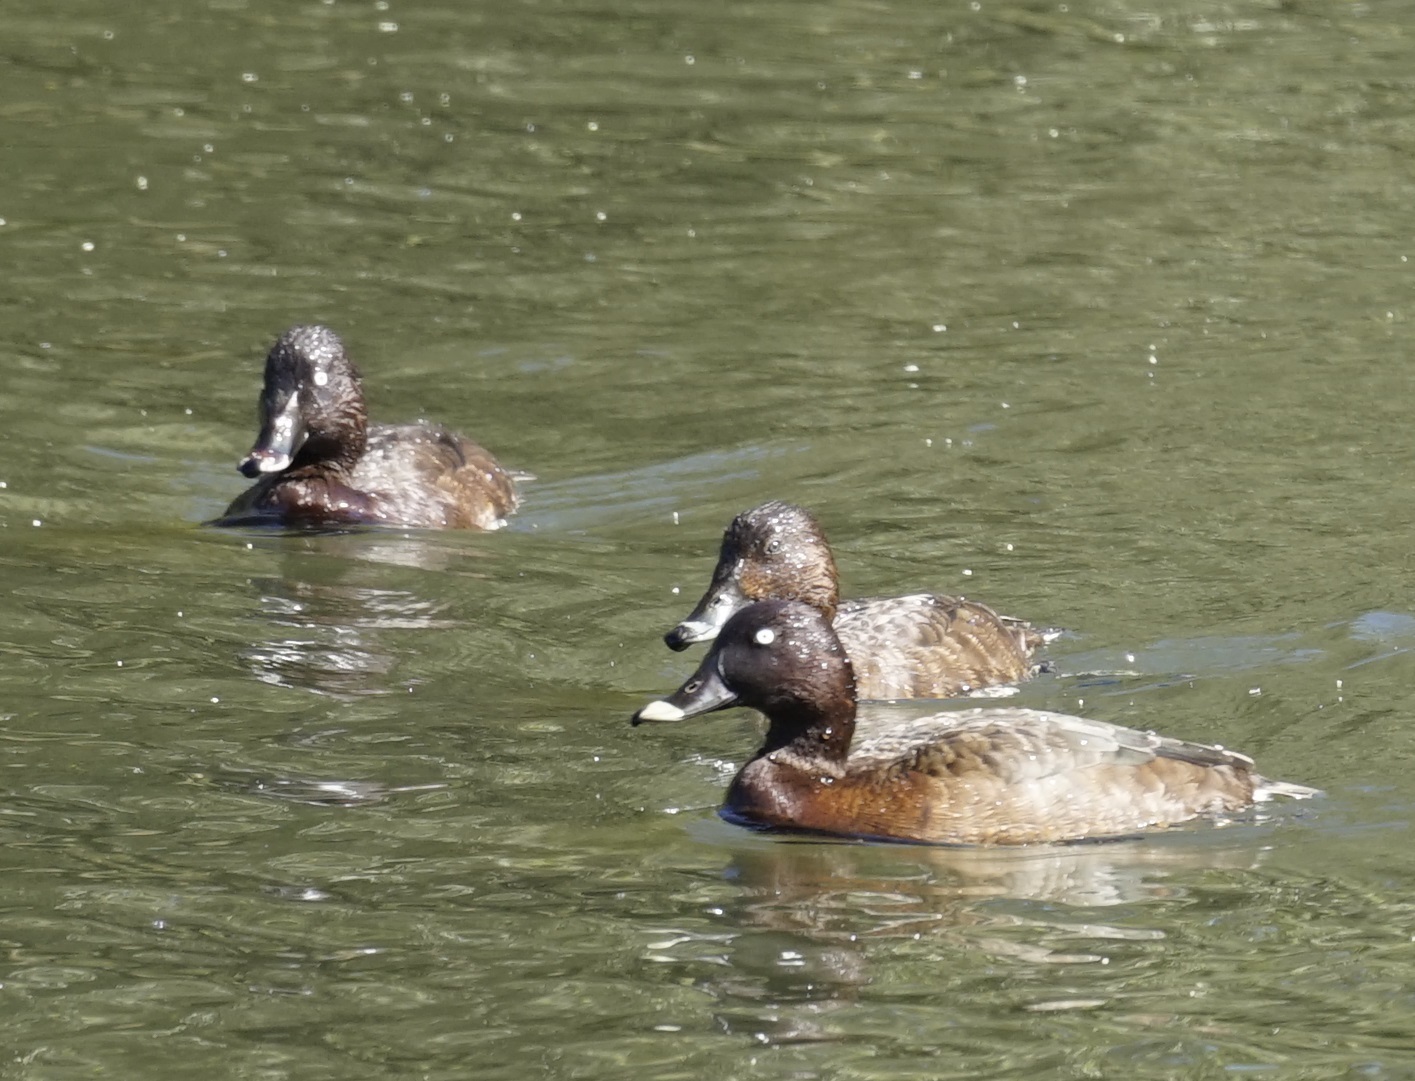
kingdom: Animalia
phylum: Chordata
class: Aves
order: Anseriformes
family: Anatidae
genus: Aythya
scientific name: Aythya australis
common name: Hardhead
